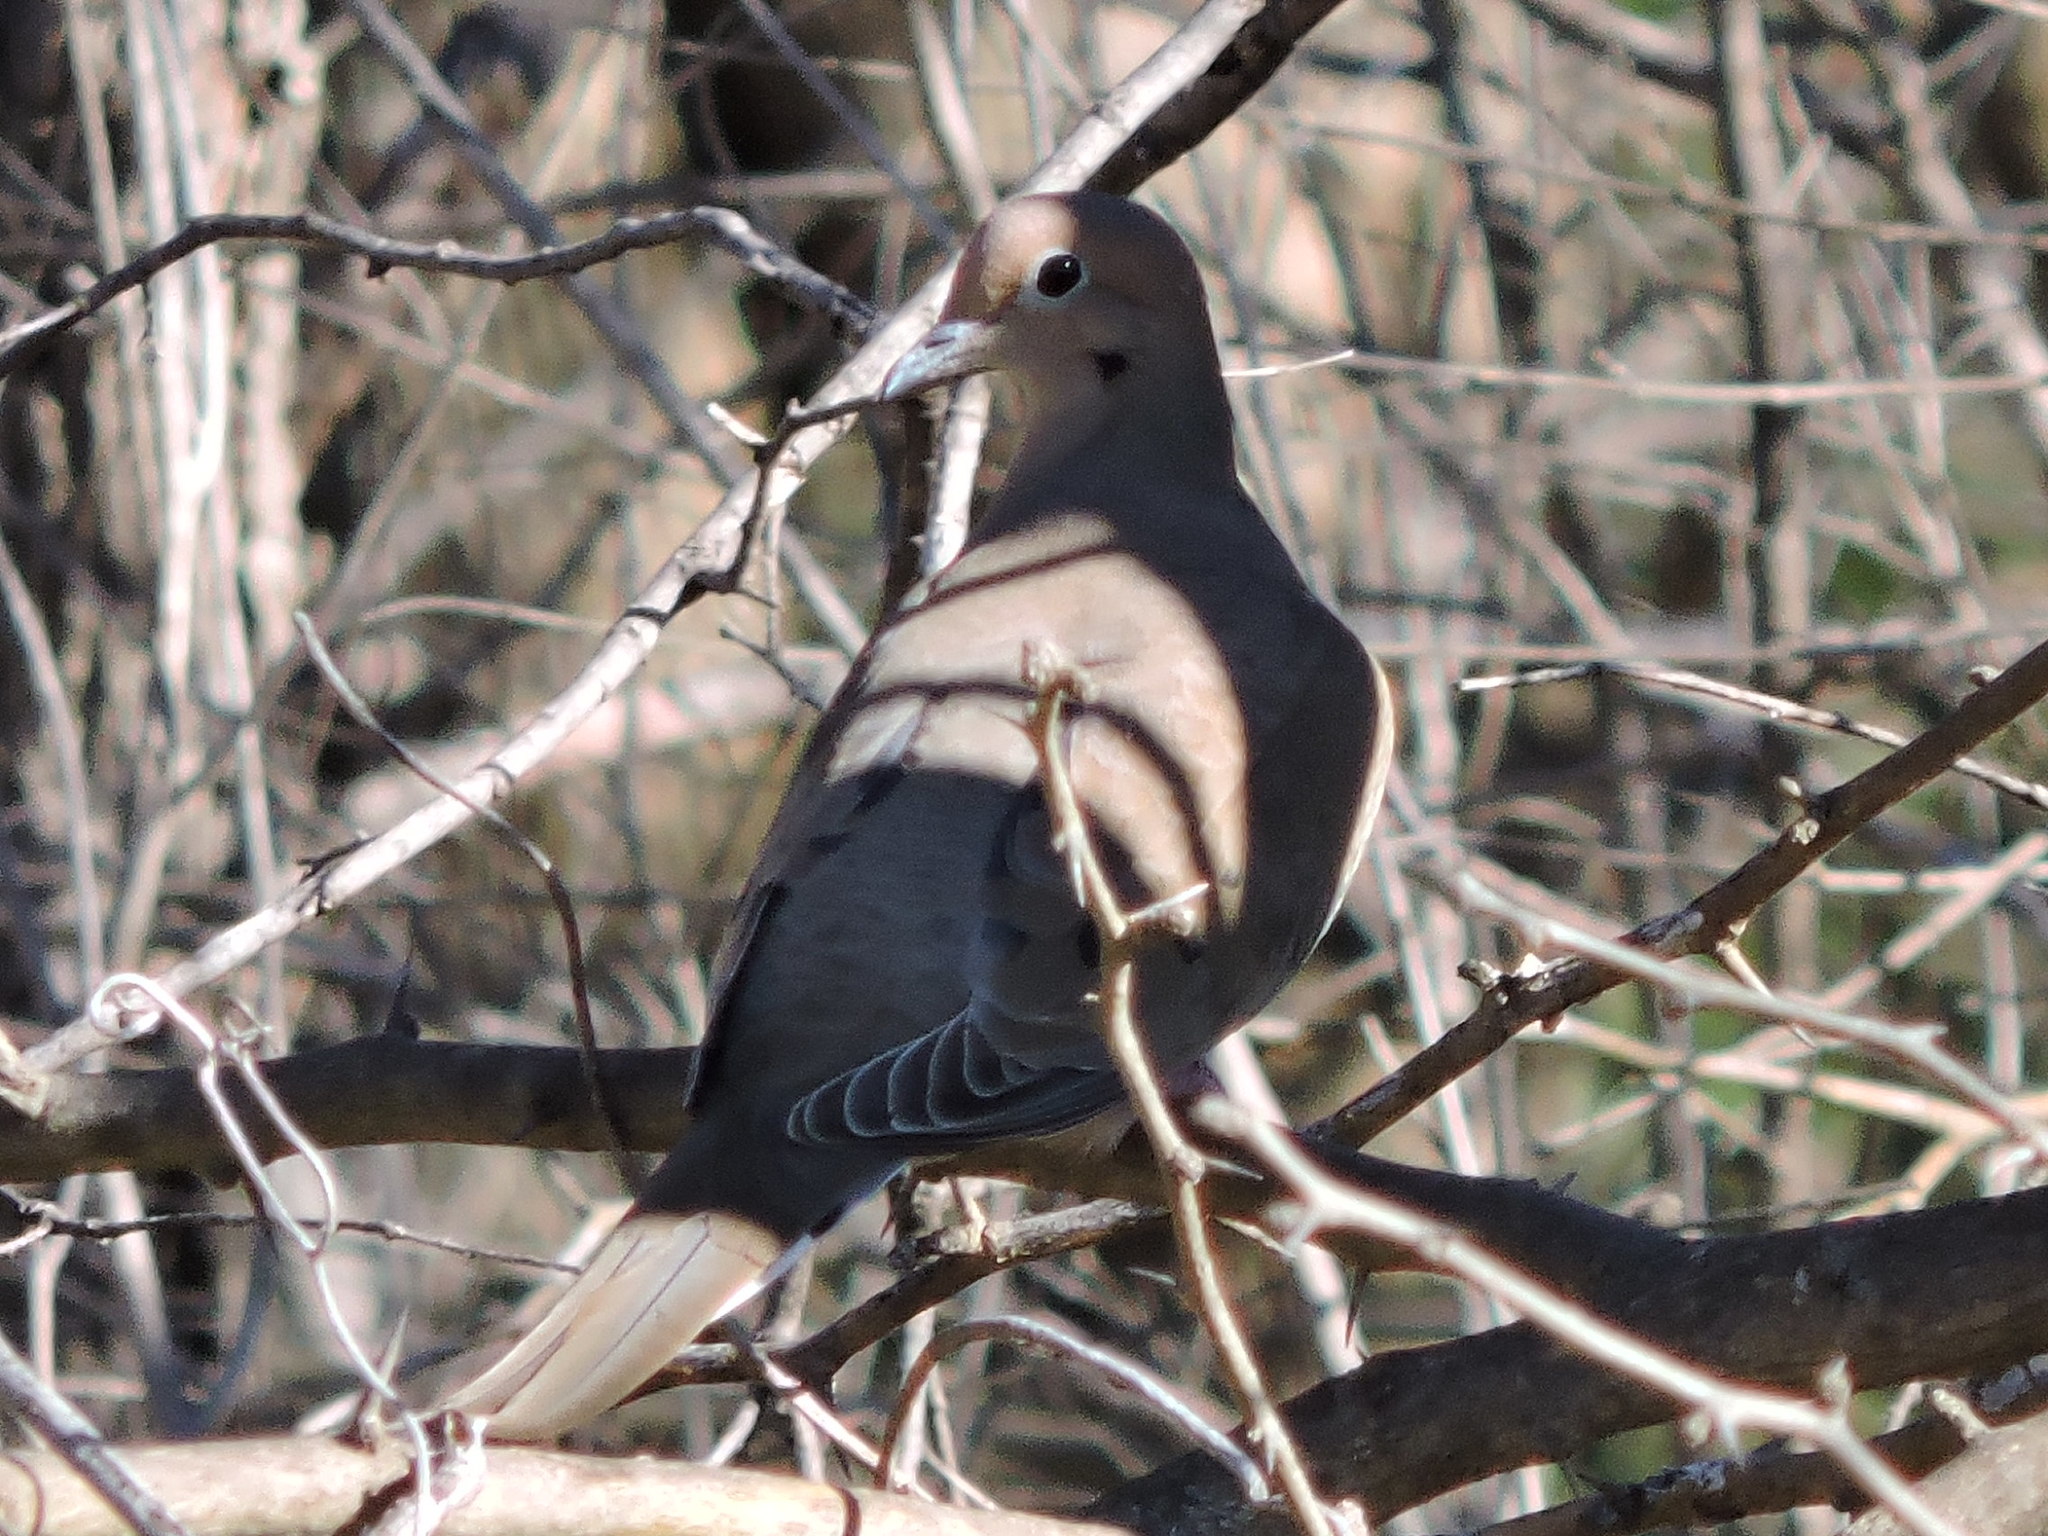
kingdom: Animalia
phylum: Chordata
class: Aves
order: Columbiformes
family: Columbidae
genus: Zenaida
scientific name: Zenaida macroura
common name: Mourning dove
